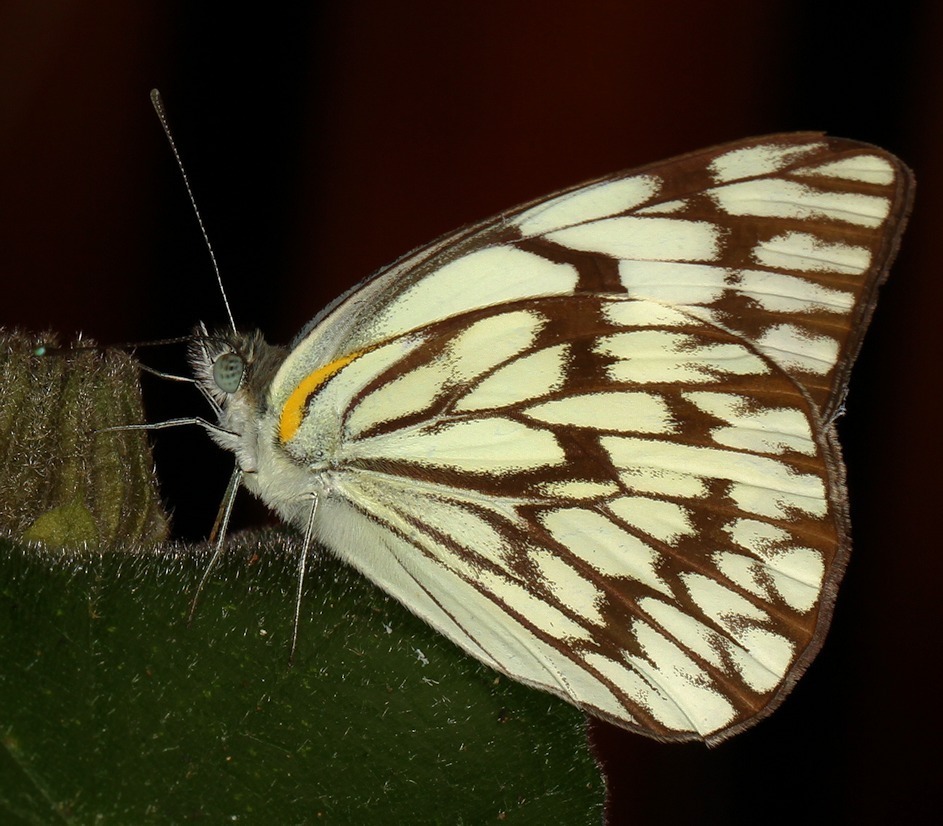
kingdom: Animalia
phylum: Arthropoda
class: Insecta
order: Lepidoptera
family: Pieridae
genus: Belenois
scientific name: Belenois gidica
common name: Pointed caper white
